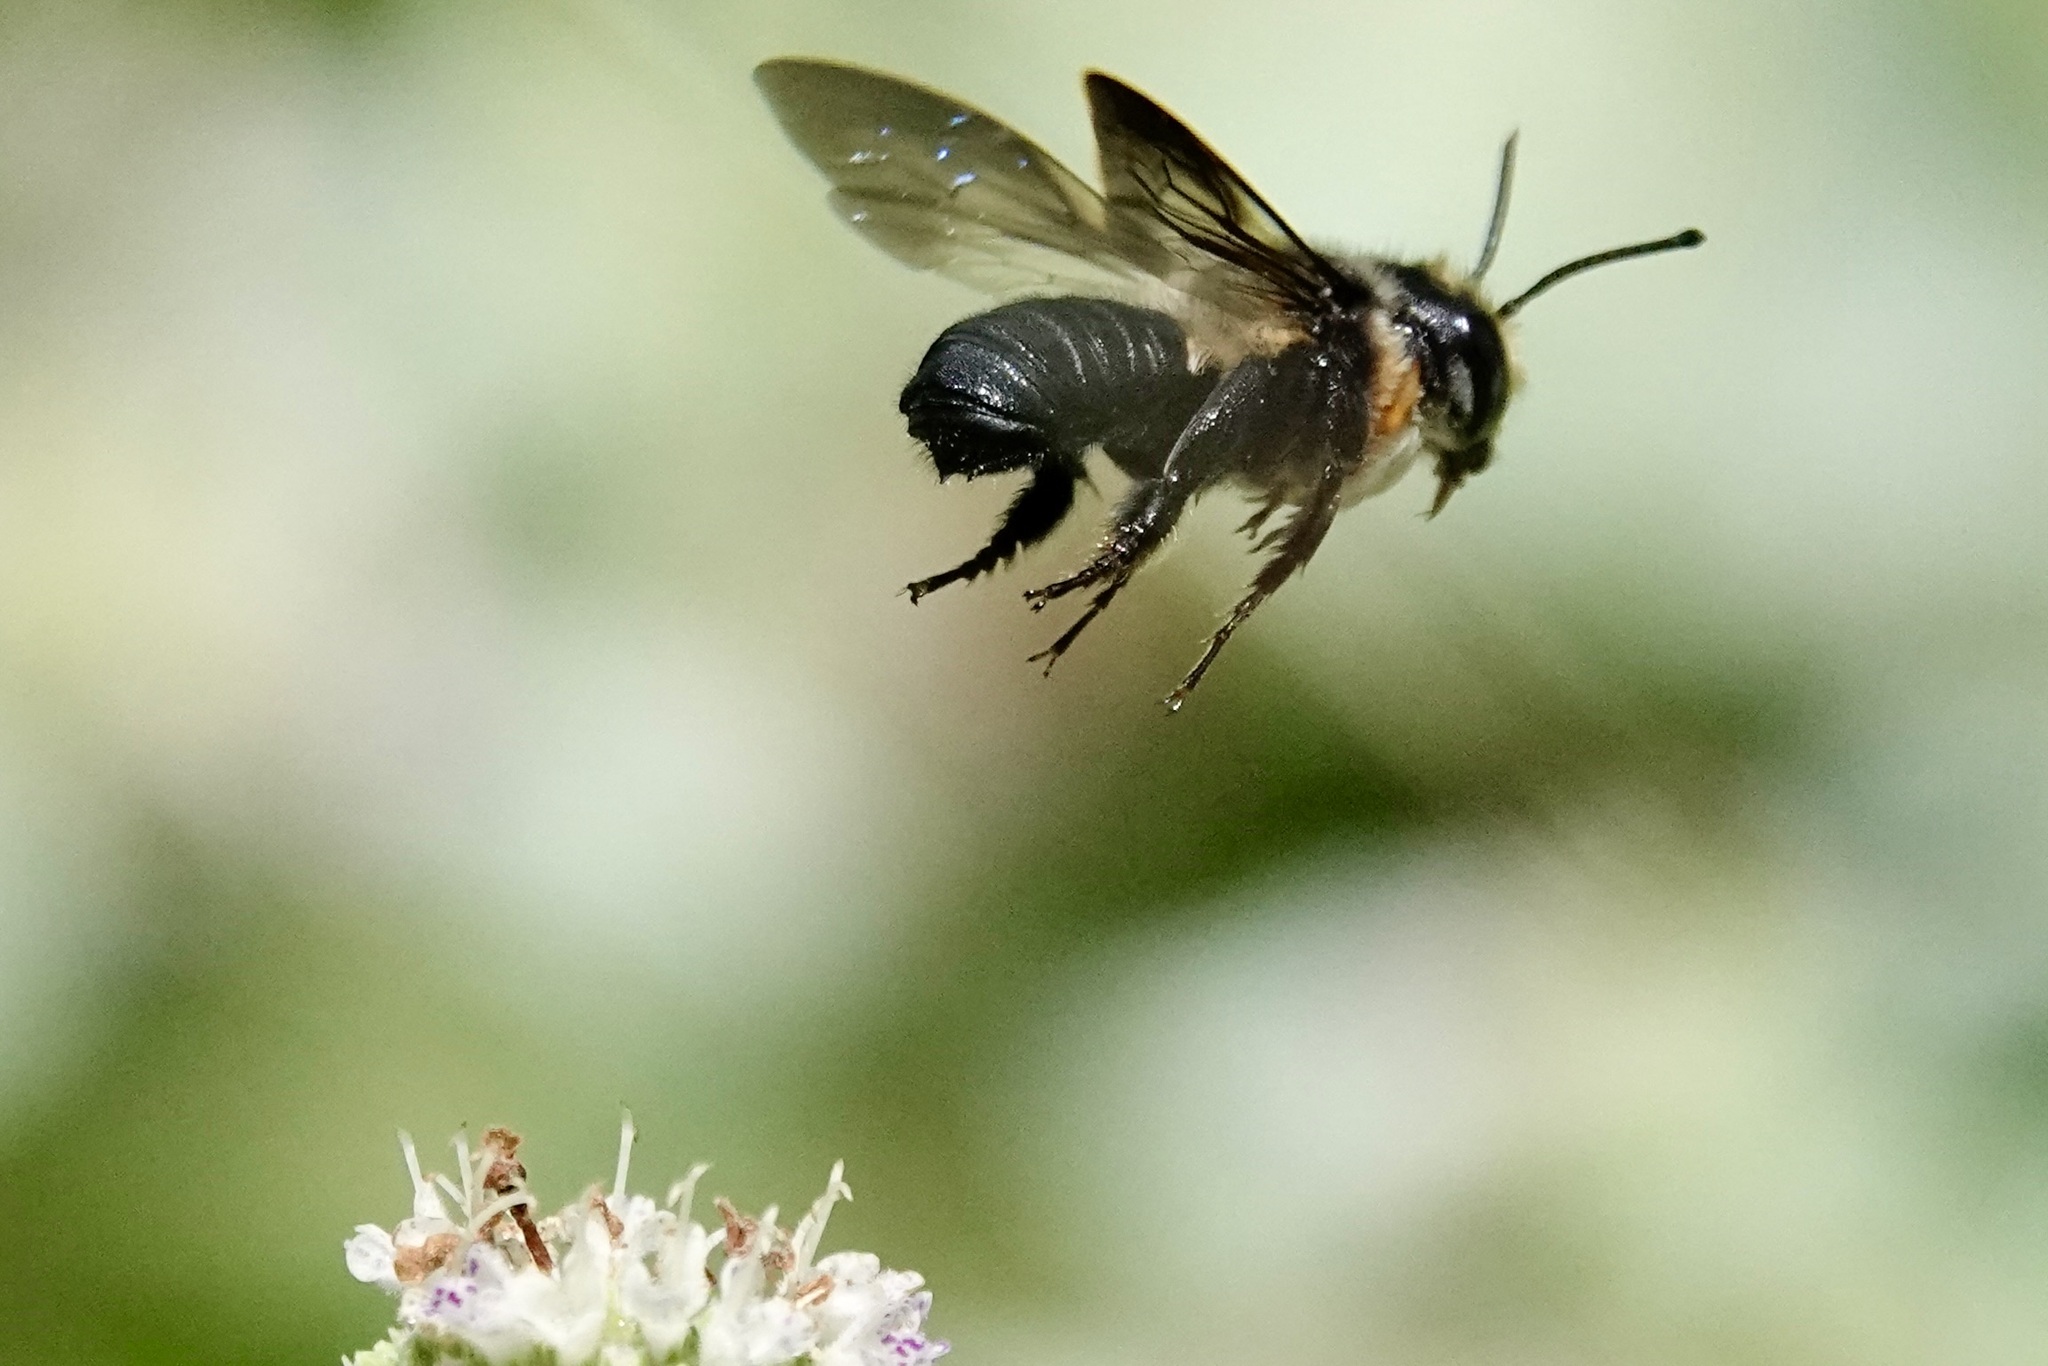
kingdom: Animalia
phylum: Arthropoda
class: Insecta
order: Hymenoptera
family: Megachilidae
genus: Megachile
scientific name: Megachile xylocopoides
